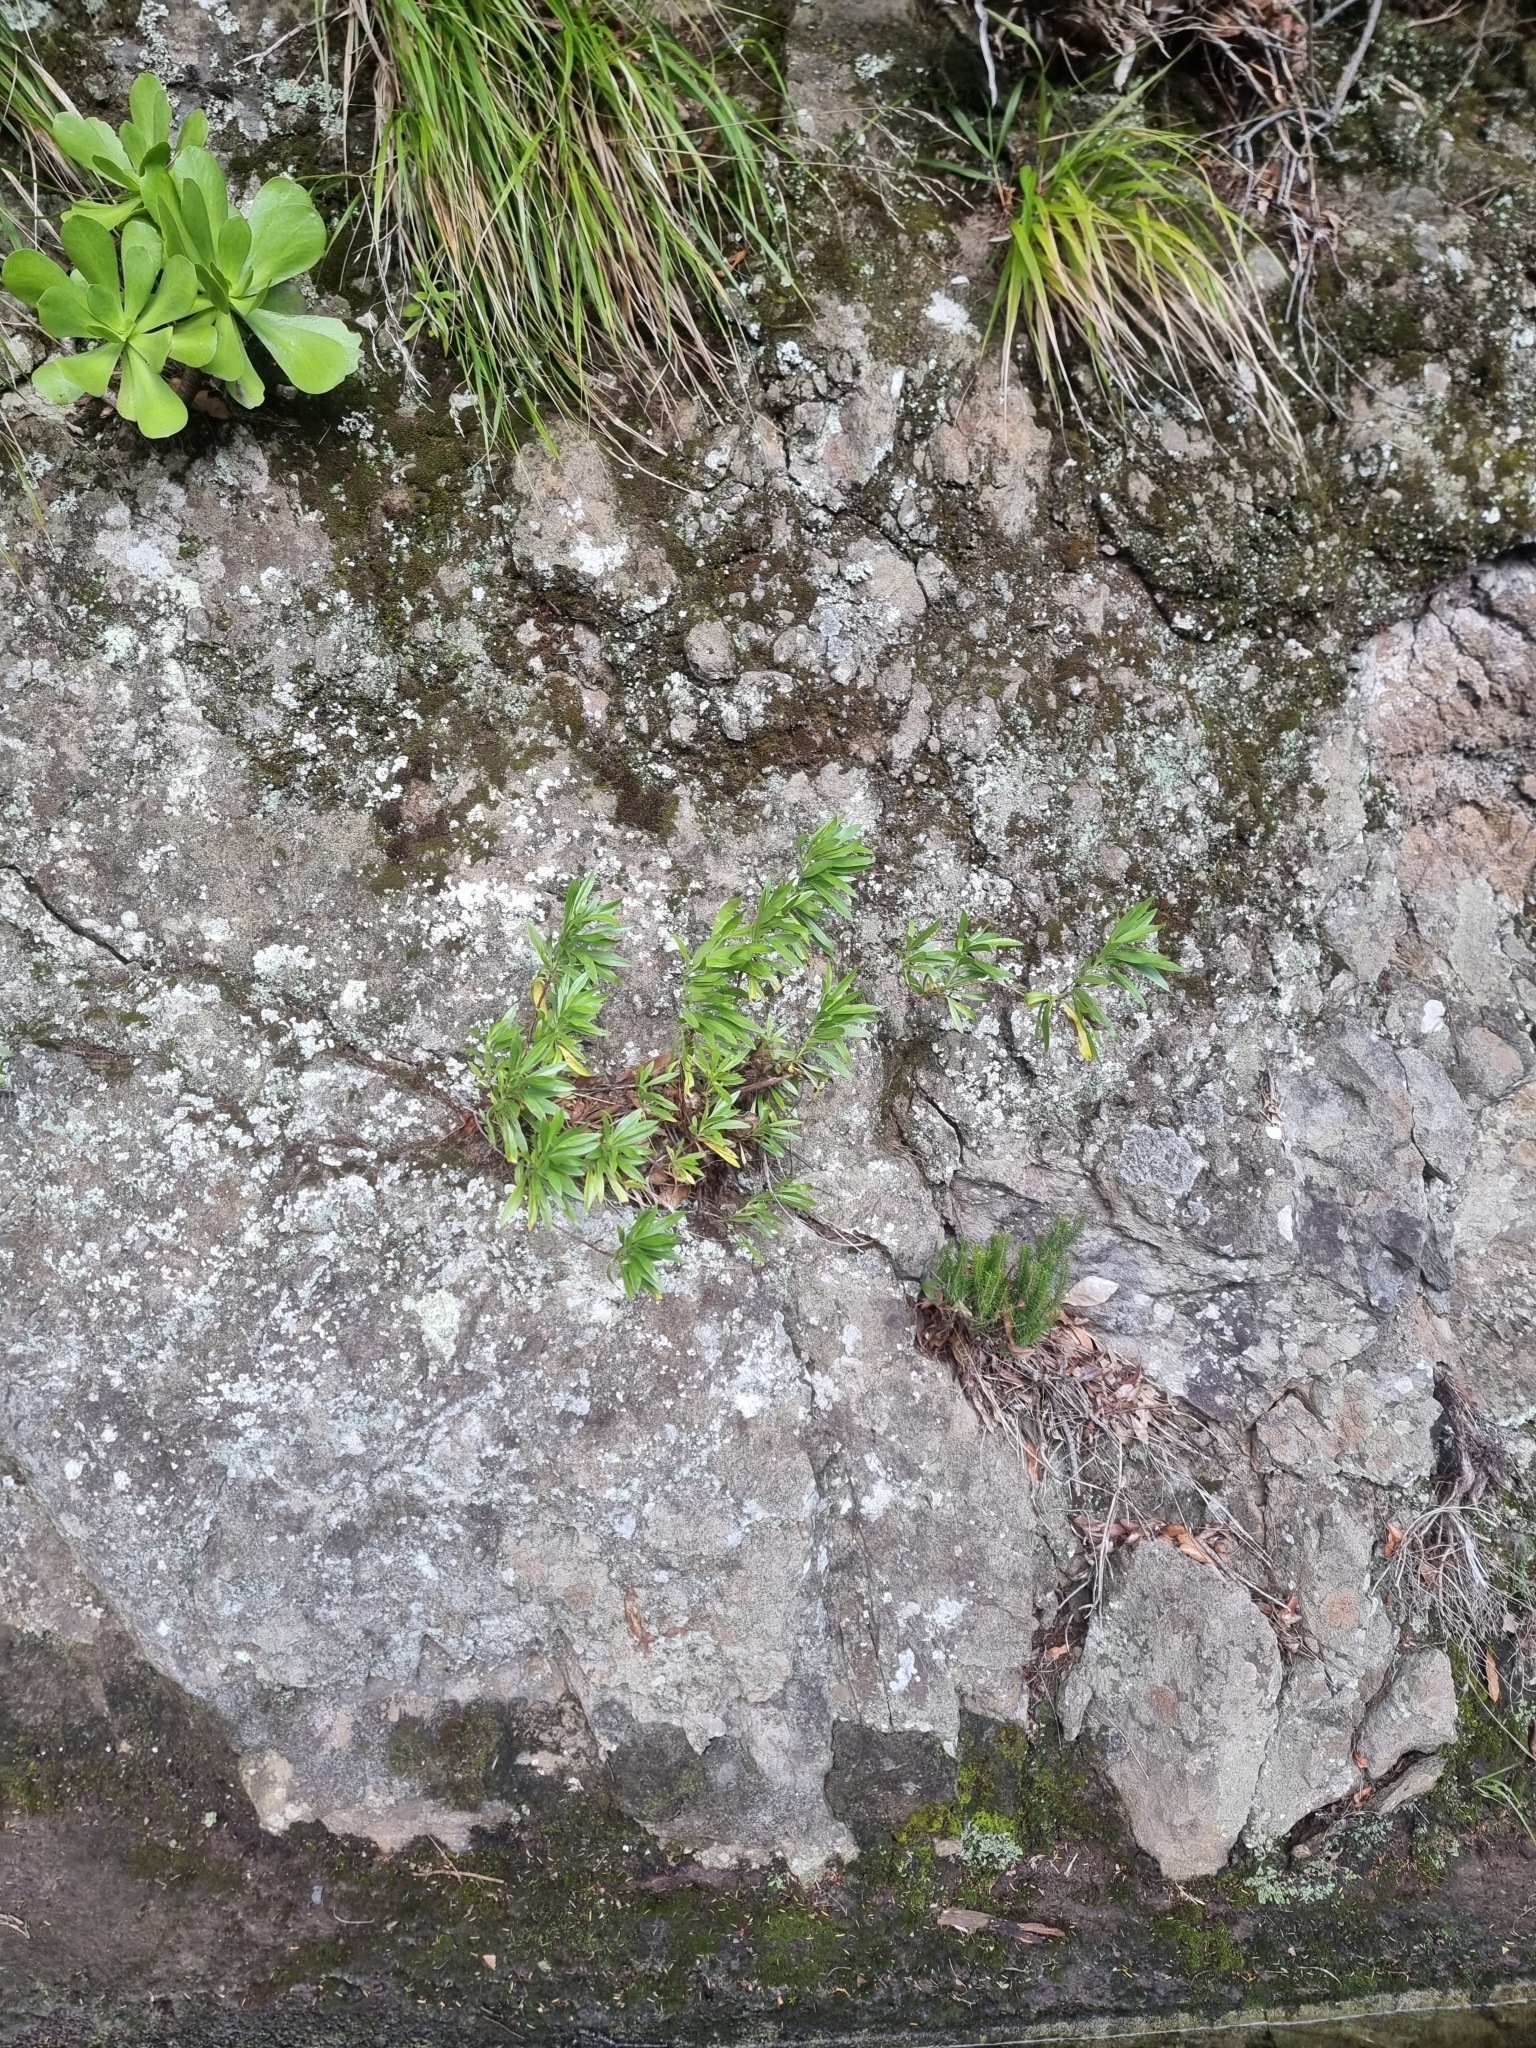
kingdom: Plantae
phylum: Tracheophyta
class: Magnoliopsida
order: Lamiales
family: Plantaginaceae
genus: Globularia
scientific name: Globularia salicina
